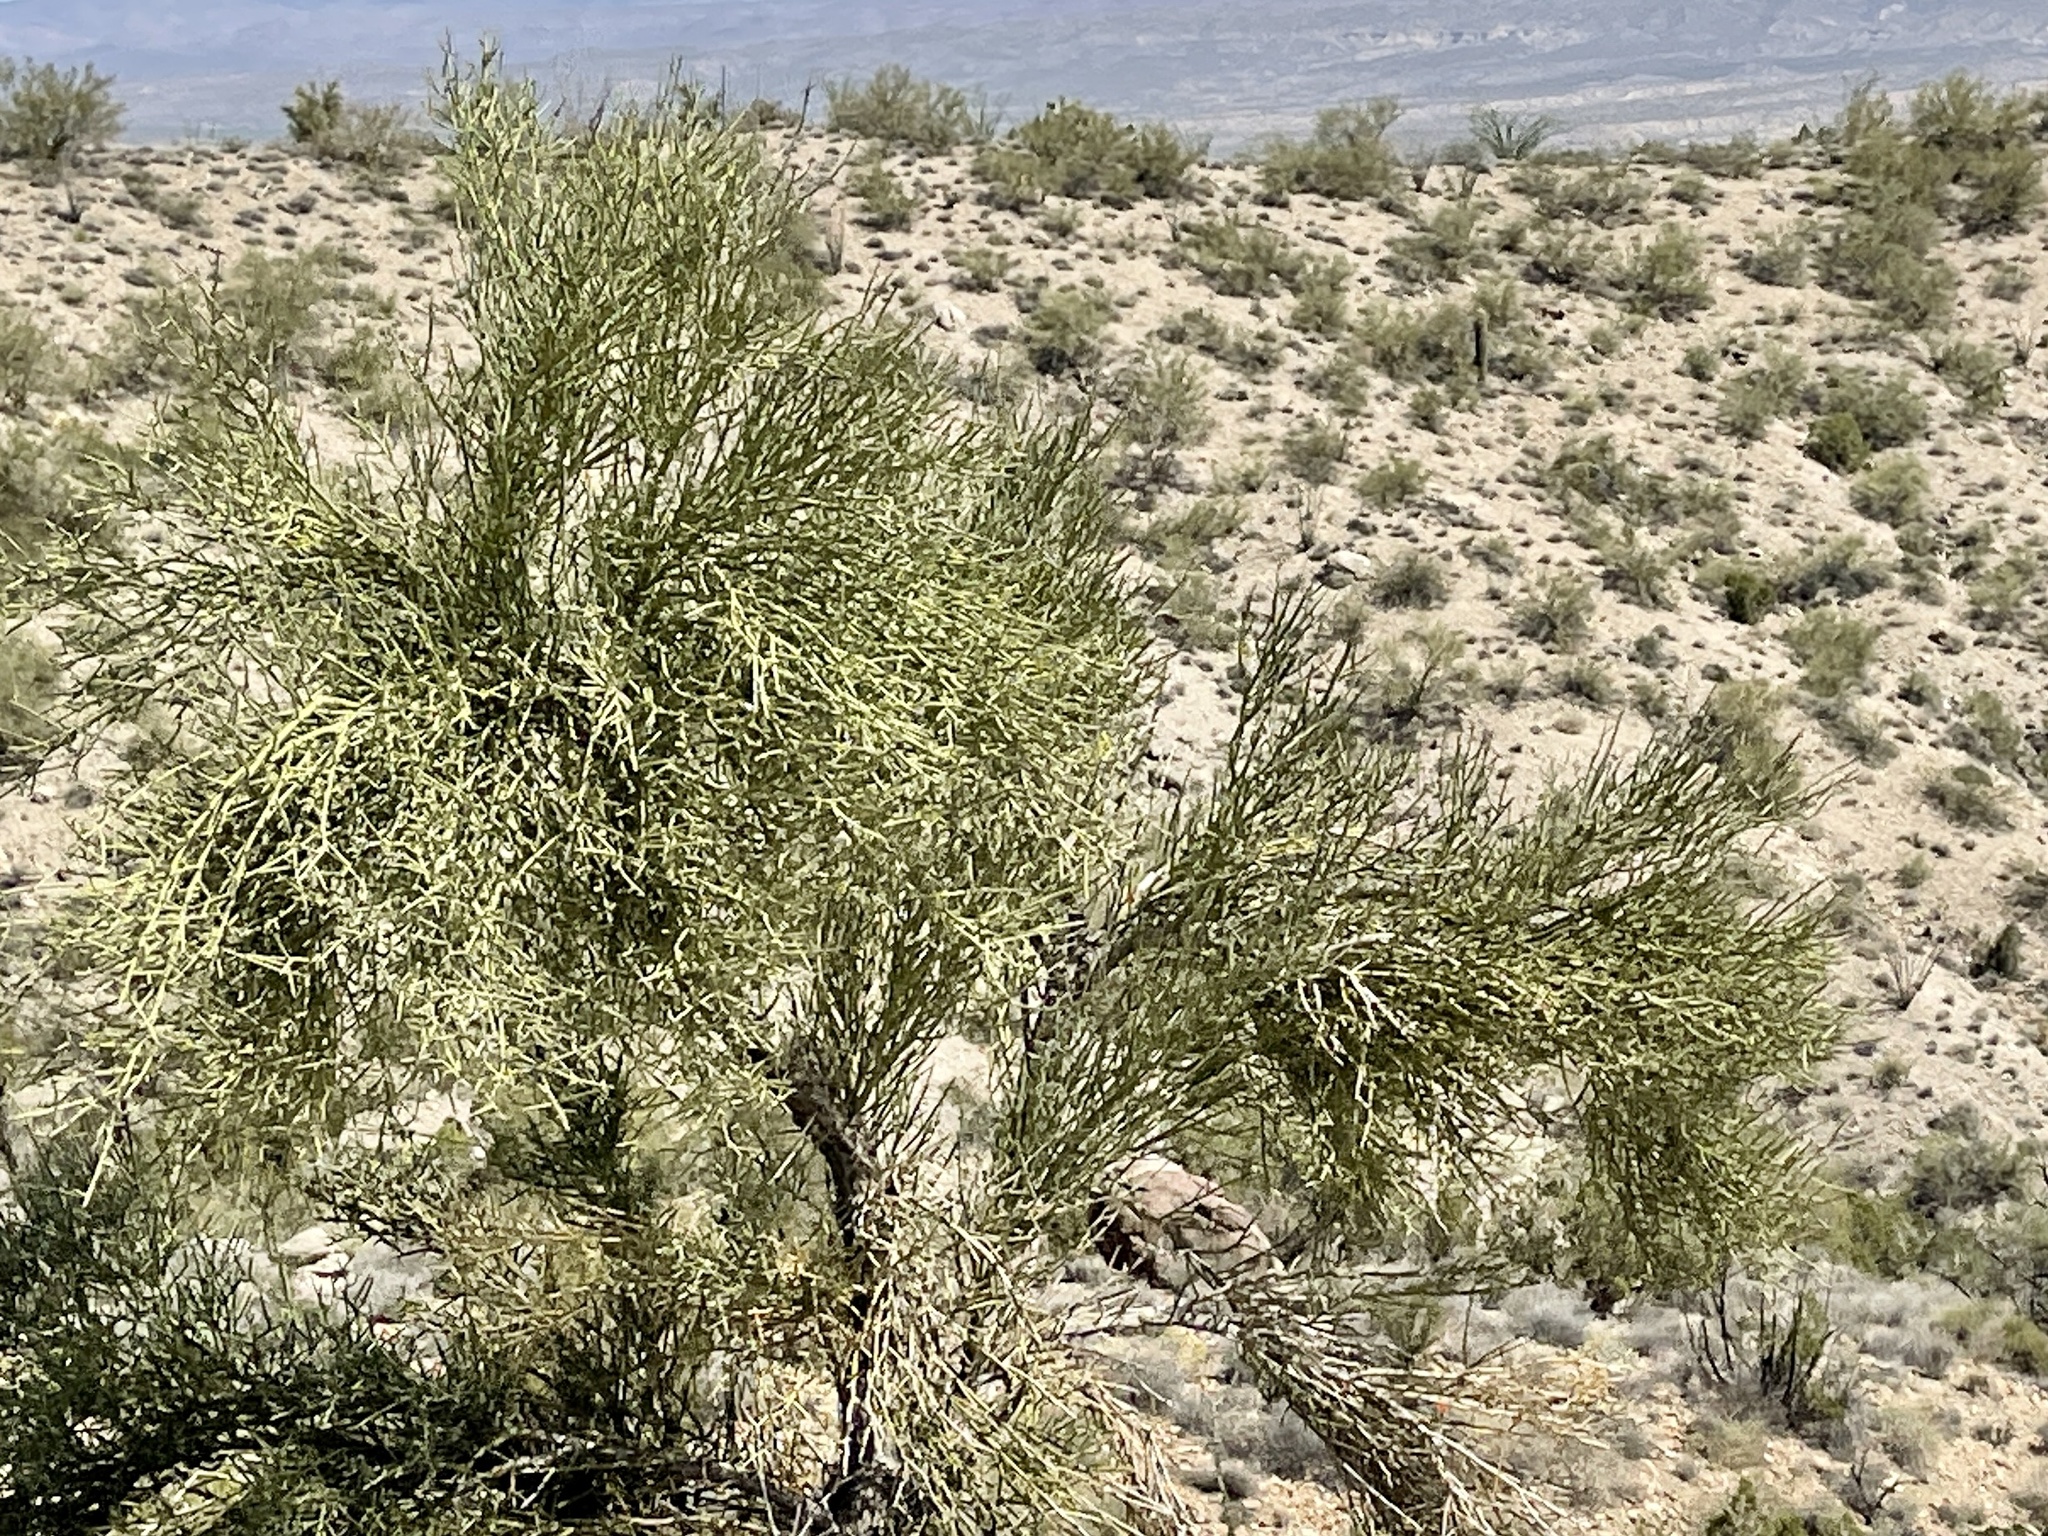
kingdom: Plantae
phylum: Tracheophyta
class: Magnoliopsida
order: Celastrales
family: Celastraceae
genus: Canotia
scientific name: Canotia holacantha
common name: Crucifixion thorns
